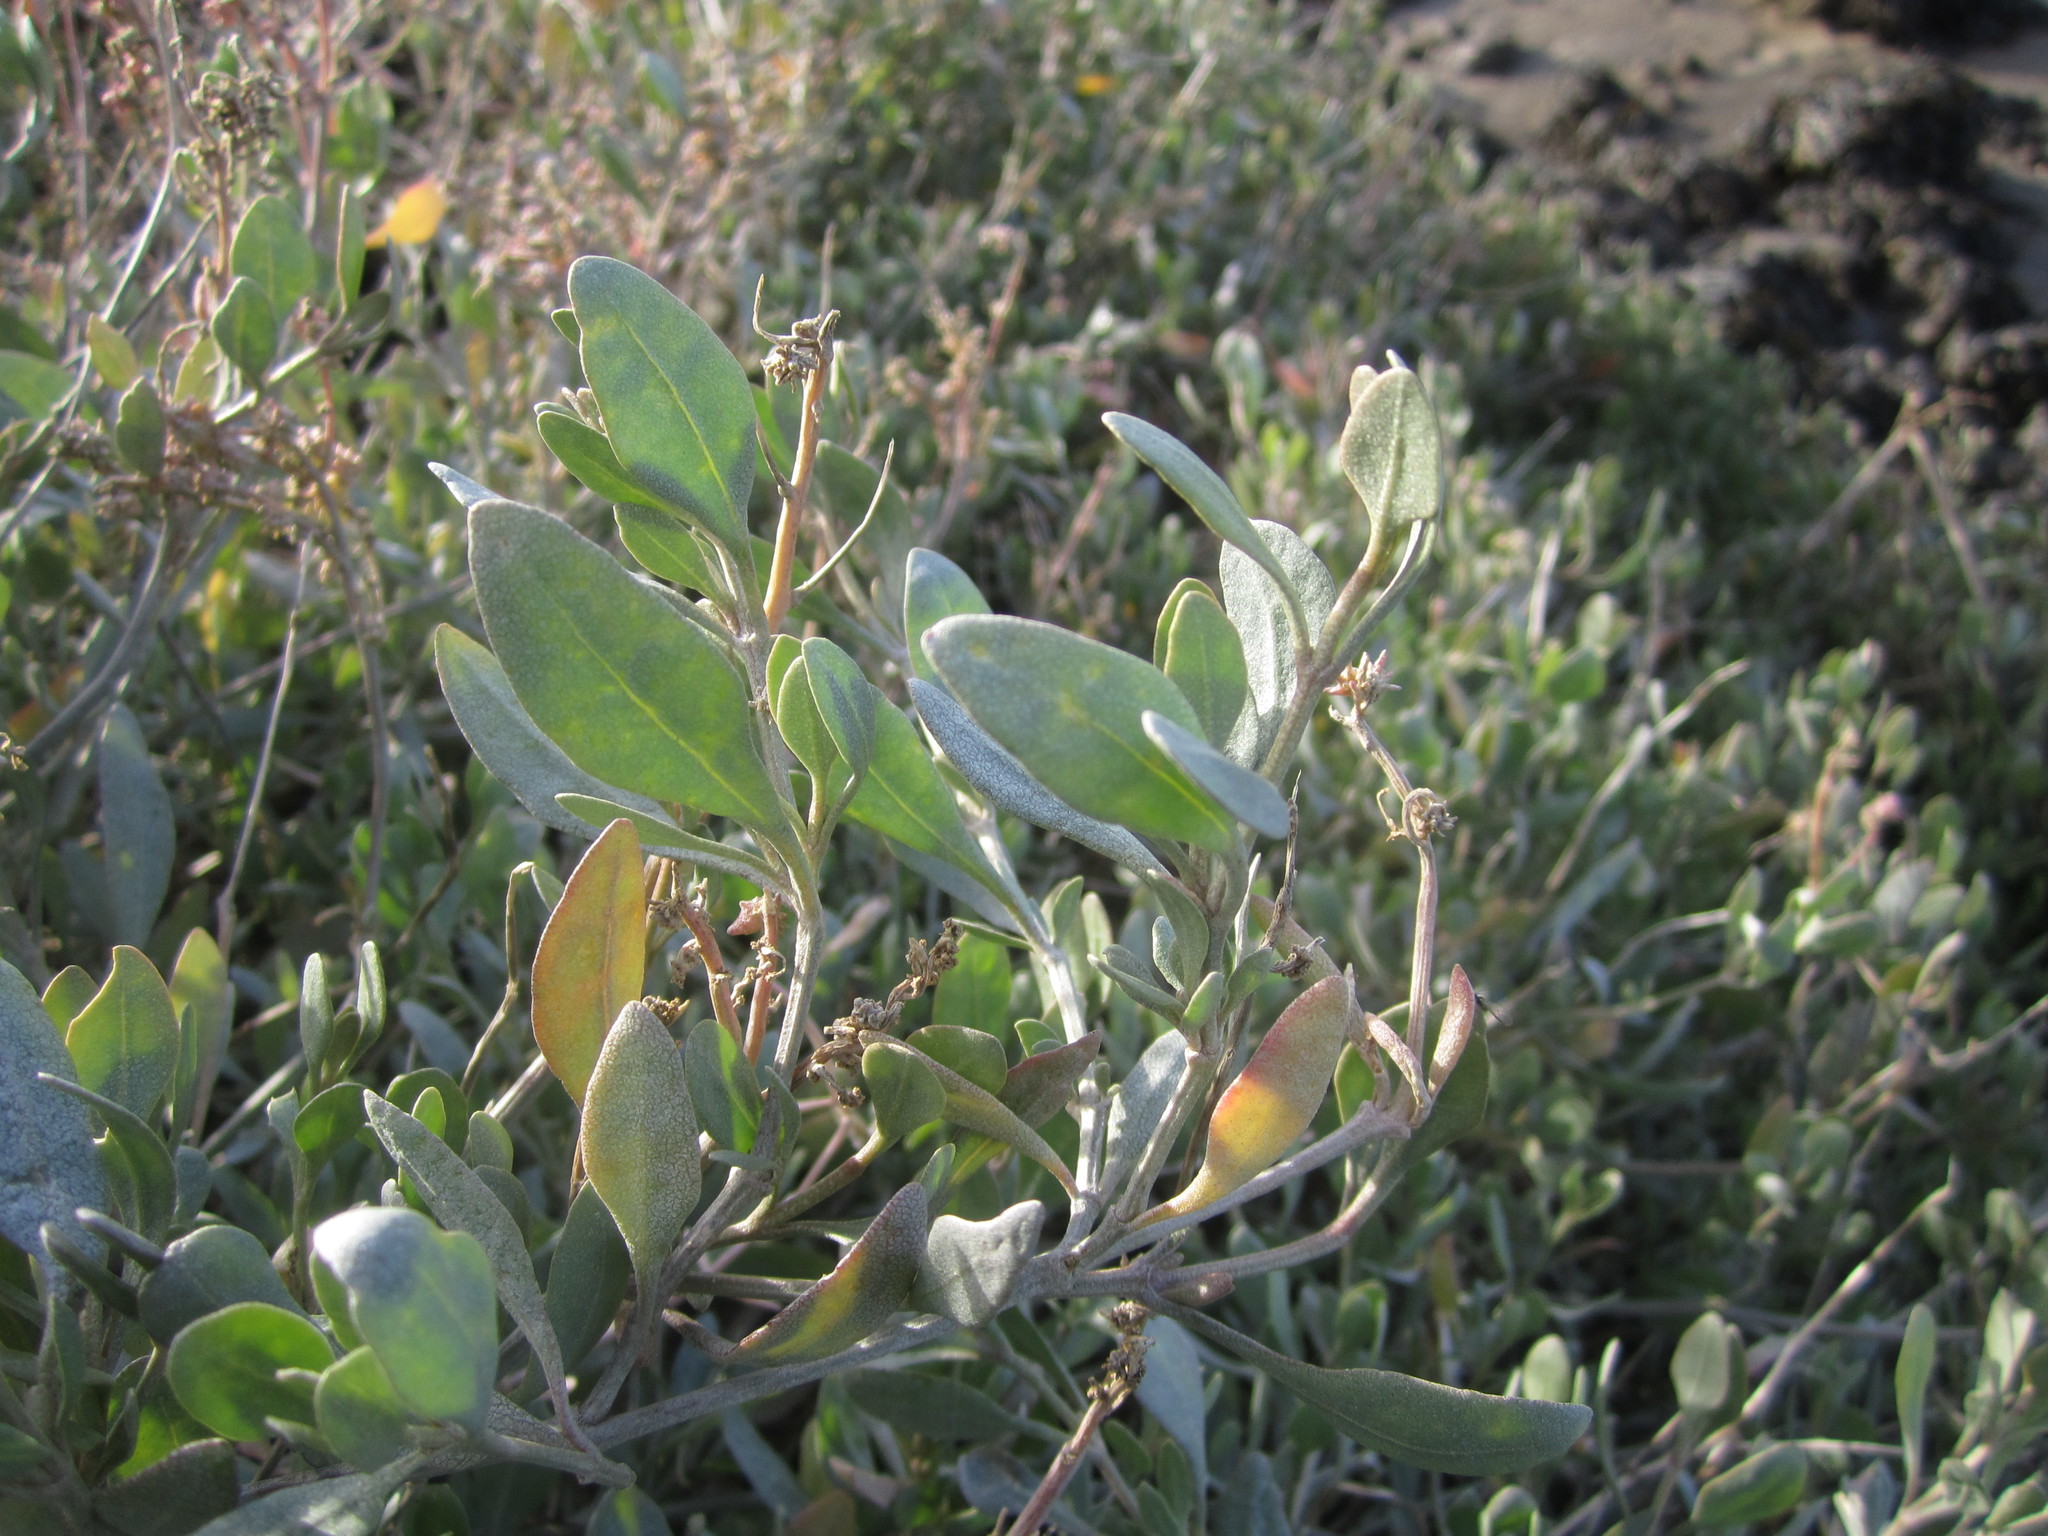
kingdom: Plantae
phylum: Tracheophyta
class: Magnoliopsida
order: Caryophyllales
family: Amaranthaceae
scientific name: Amaranthaceae
